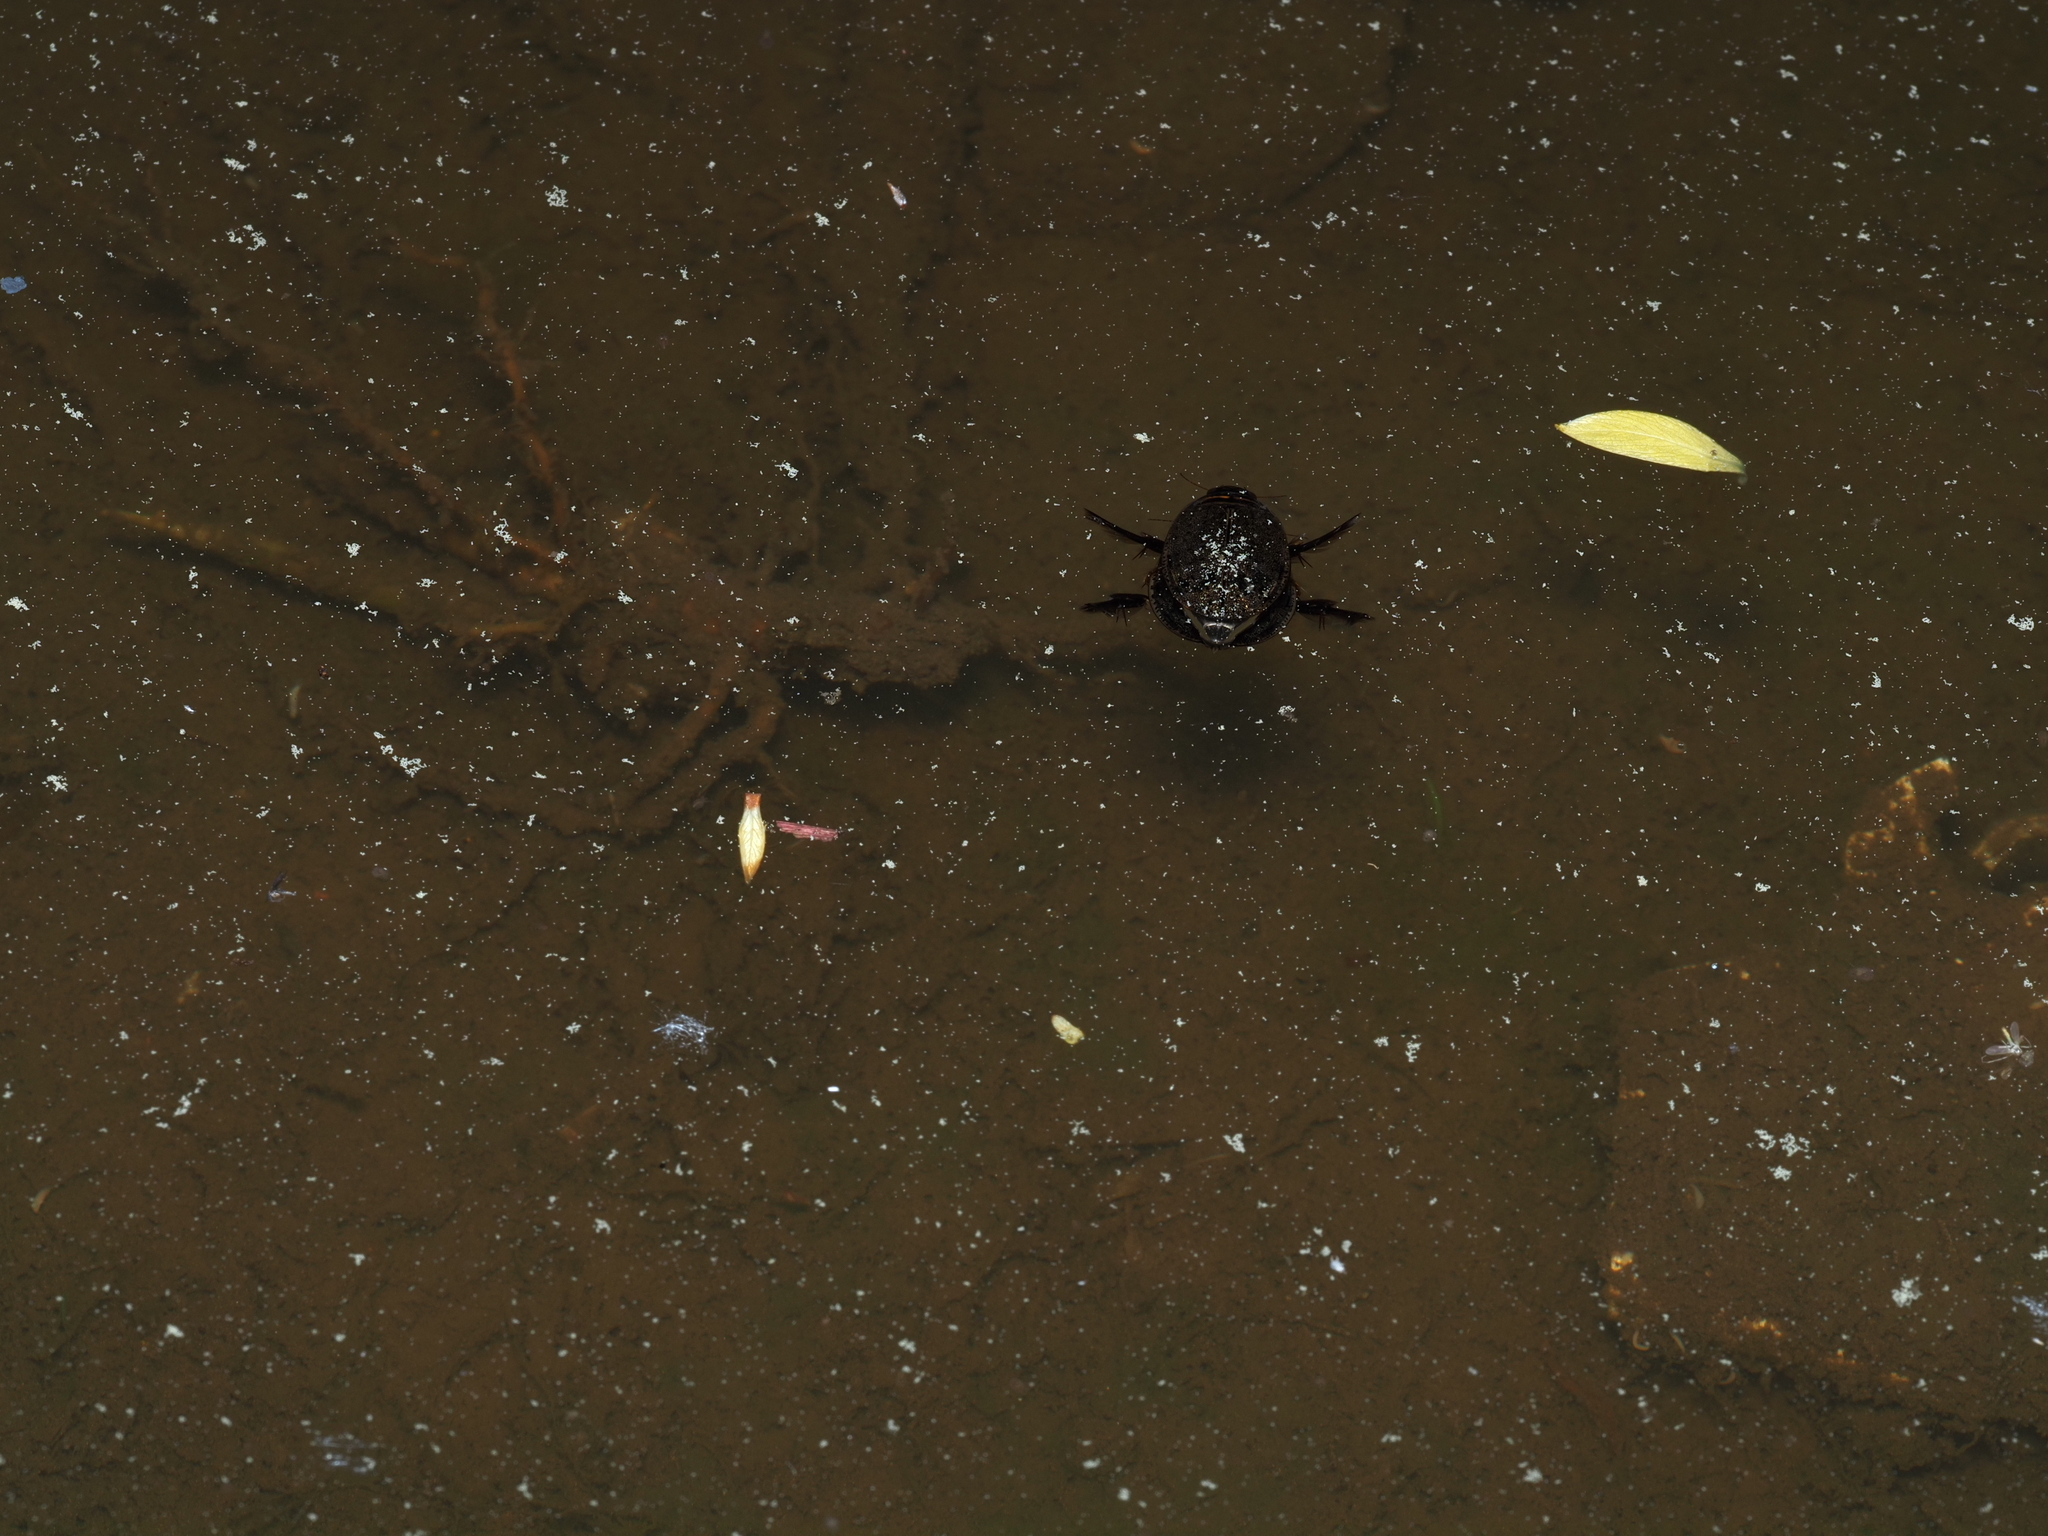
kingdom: Animalia
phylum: Arthropoda
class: Insecta
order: Coleoptera
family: Dytiscidae
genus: Acilius
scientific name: Acilius
